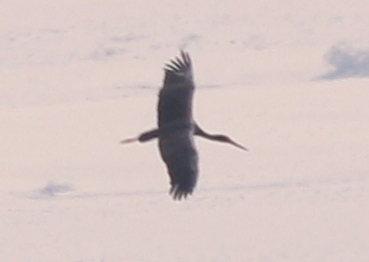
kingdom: Animalia
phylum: Chordata
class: Aves
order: Ciconiiformes
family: Ciconiidae
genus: Ciconia
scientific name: Ciconia nigra
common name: Black stork
